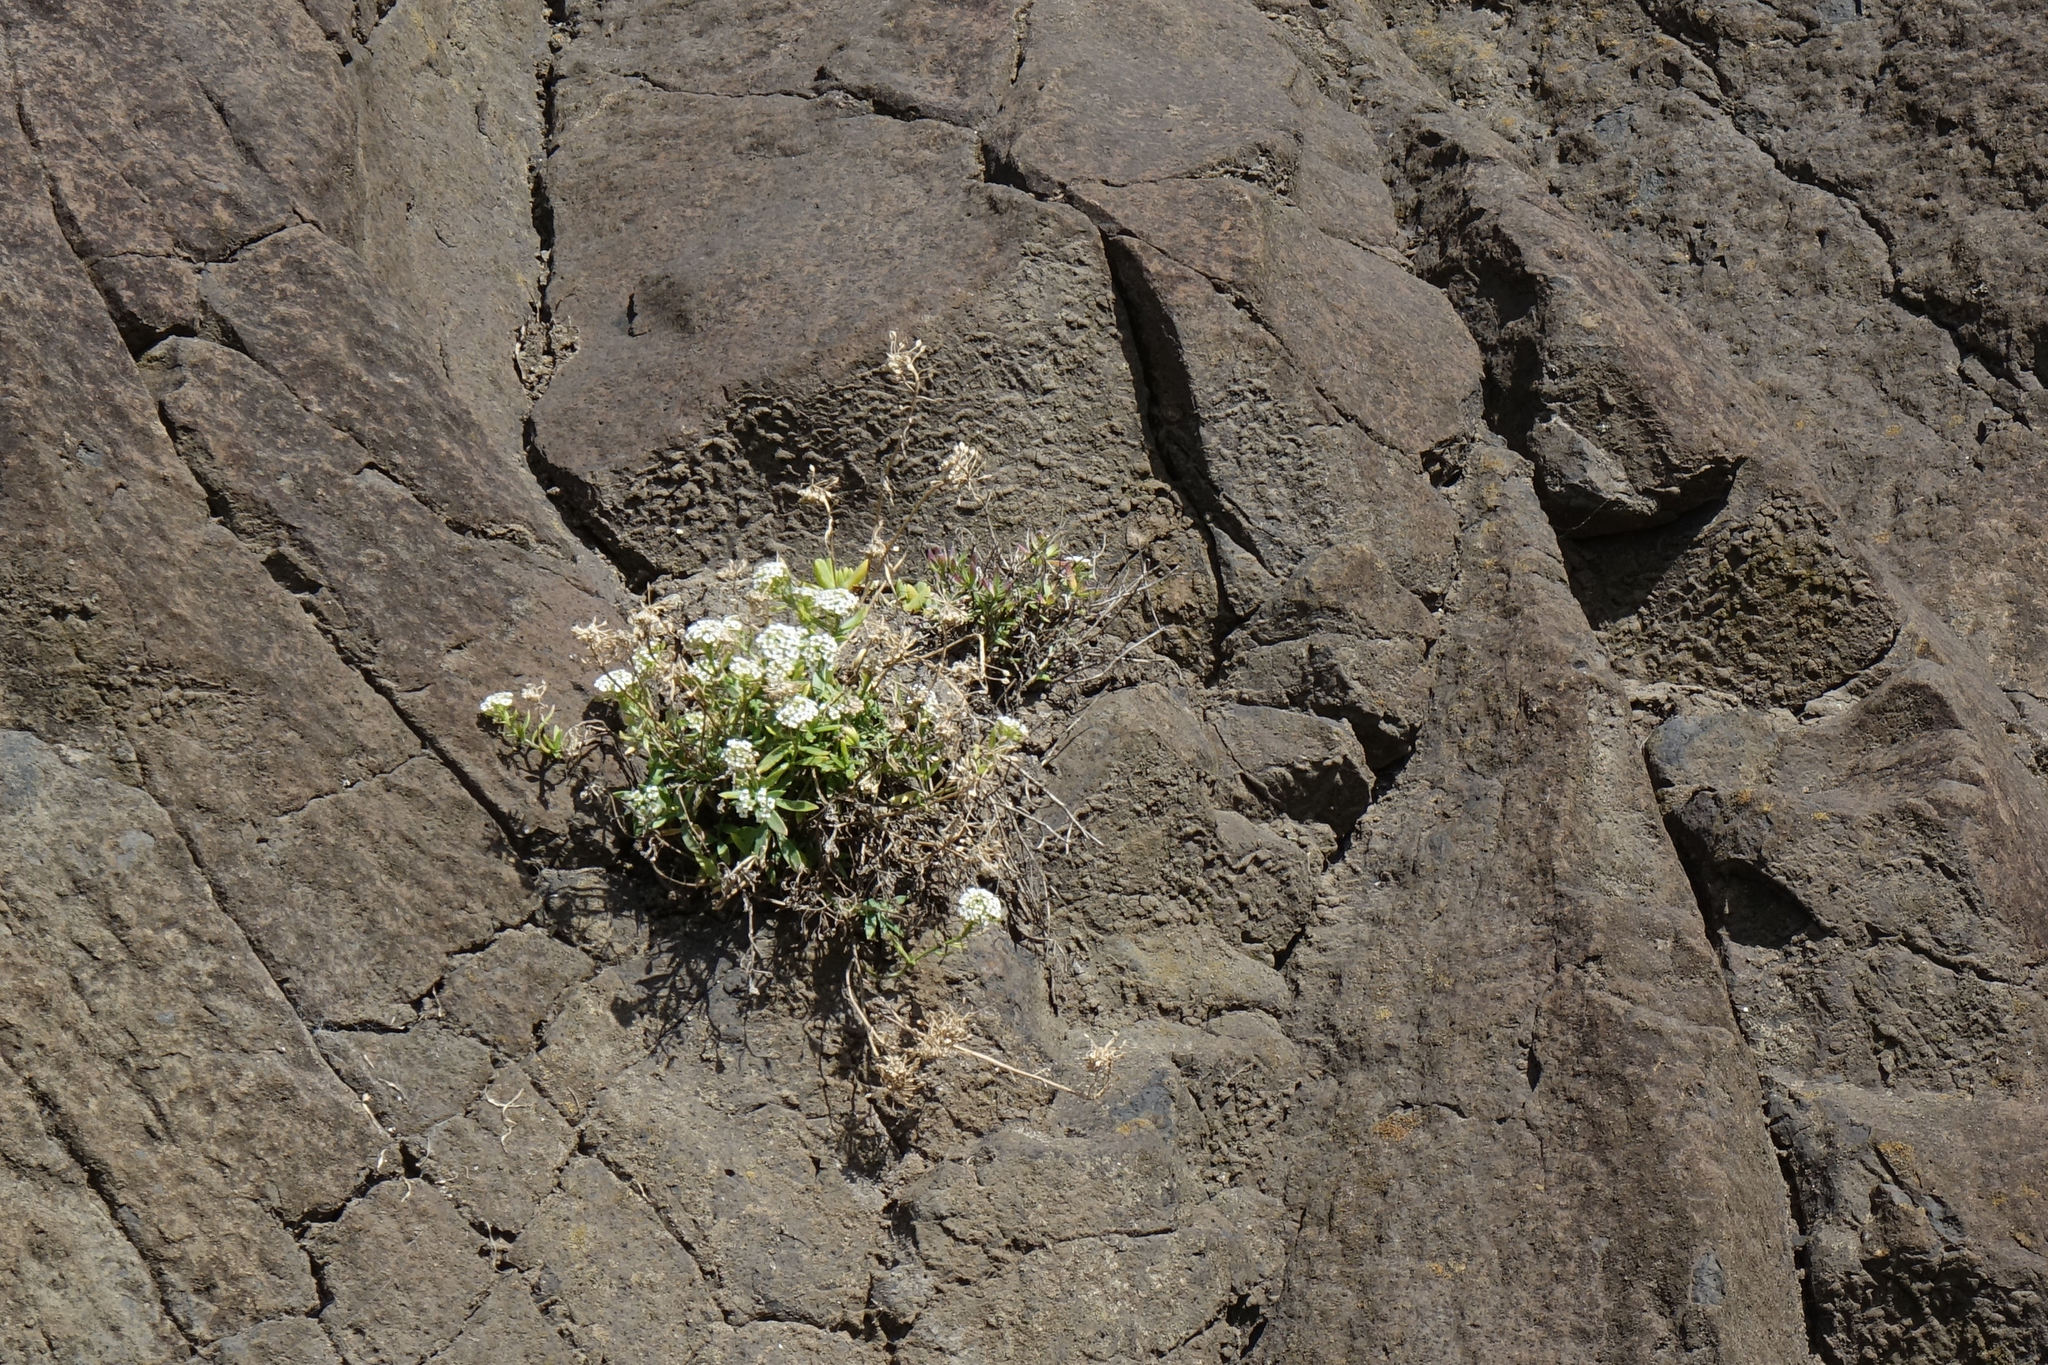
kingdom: Plantae
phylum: Tracheophyta
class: Magnoliopsida
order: Brassicales
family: Brassicaceae
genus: Lobularia
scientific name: Lobularia maritima
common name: Sweet alison
